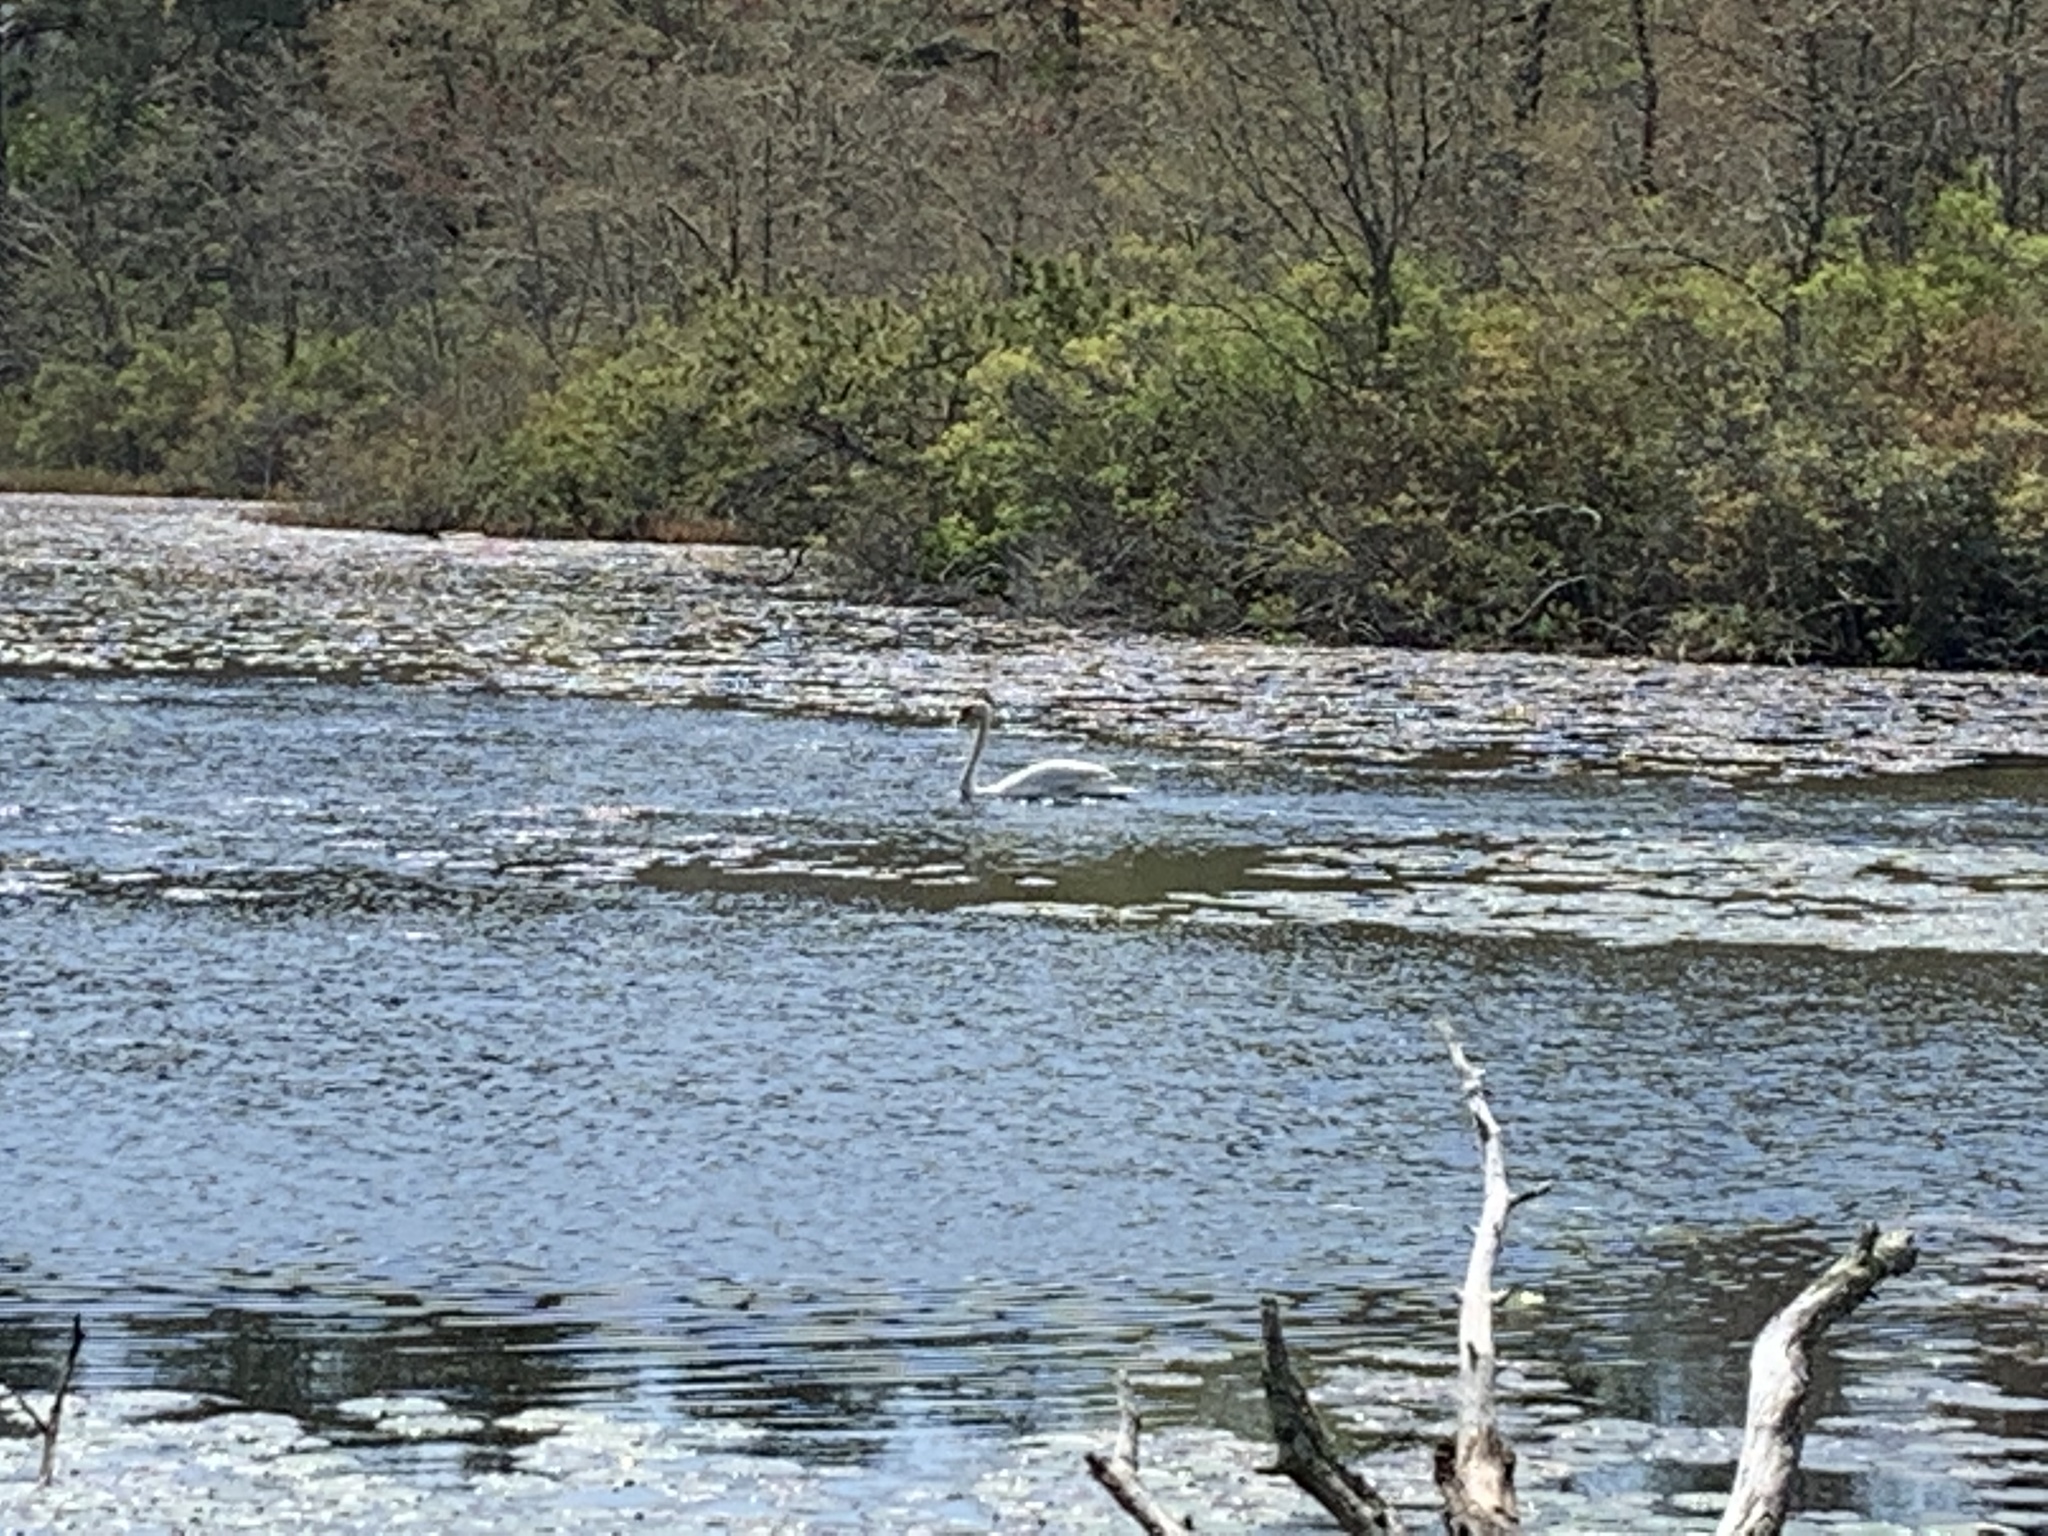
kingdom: Animalia
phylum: Chordata
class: Aves
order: Anseriformes
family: Anatidae
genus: Cygnus
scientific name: Cygnus olor
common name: Mute swan
